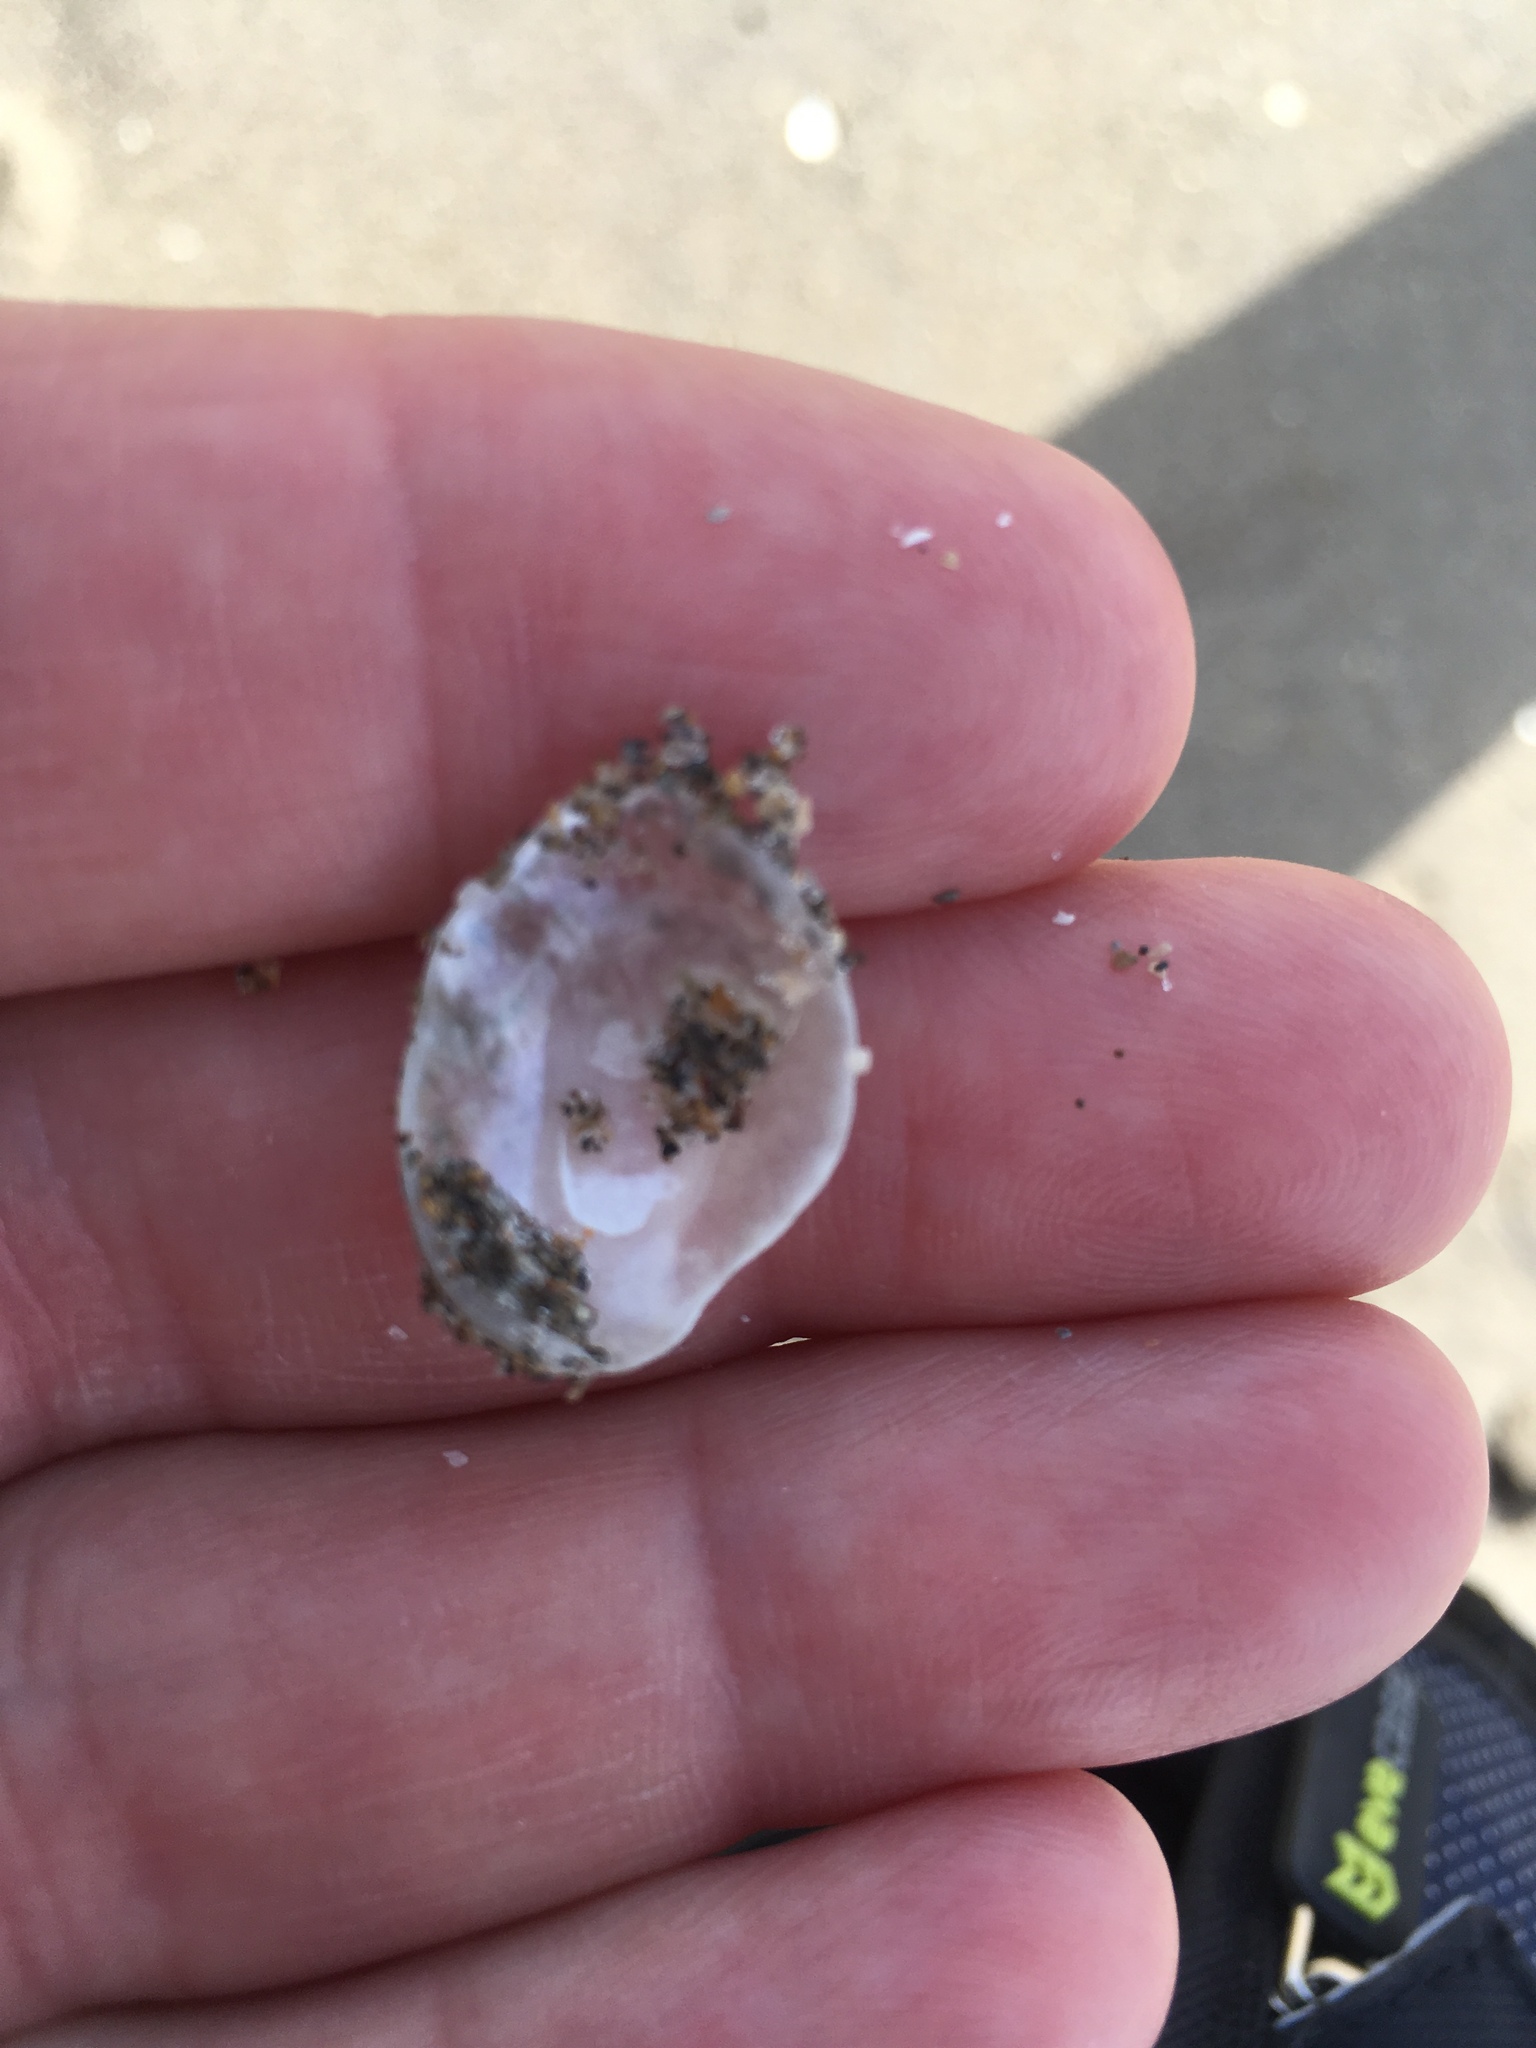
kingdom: Animalia
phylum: Mollusca
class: Bivalvia
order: Pectinida
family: Anomiidae
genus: Anomia
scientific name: Anomia simplex
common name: Common jingle shell
